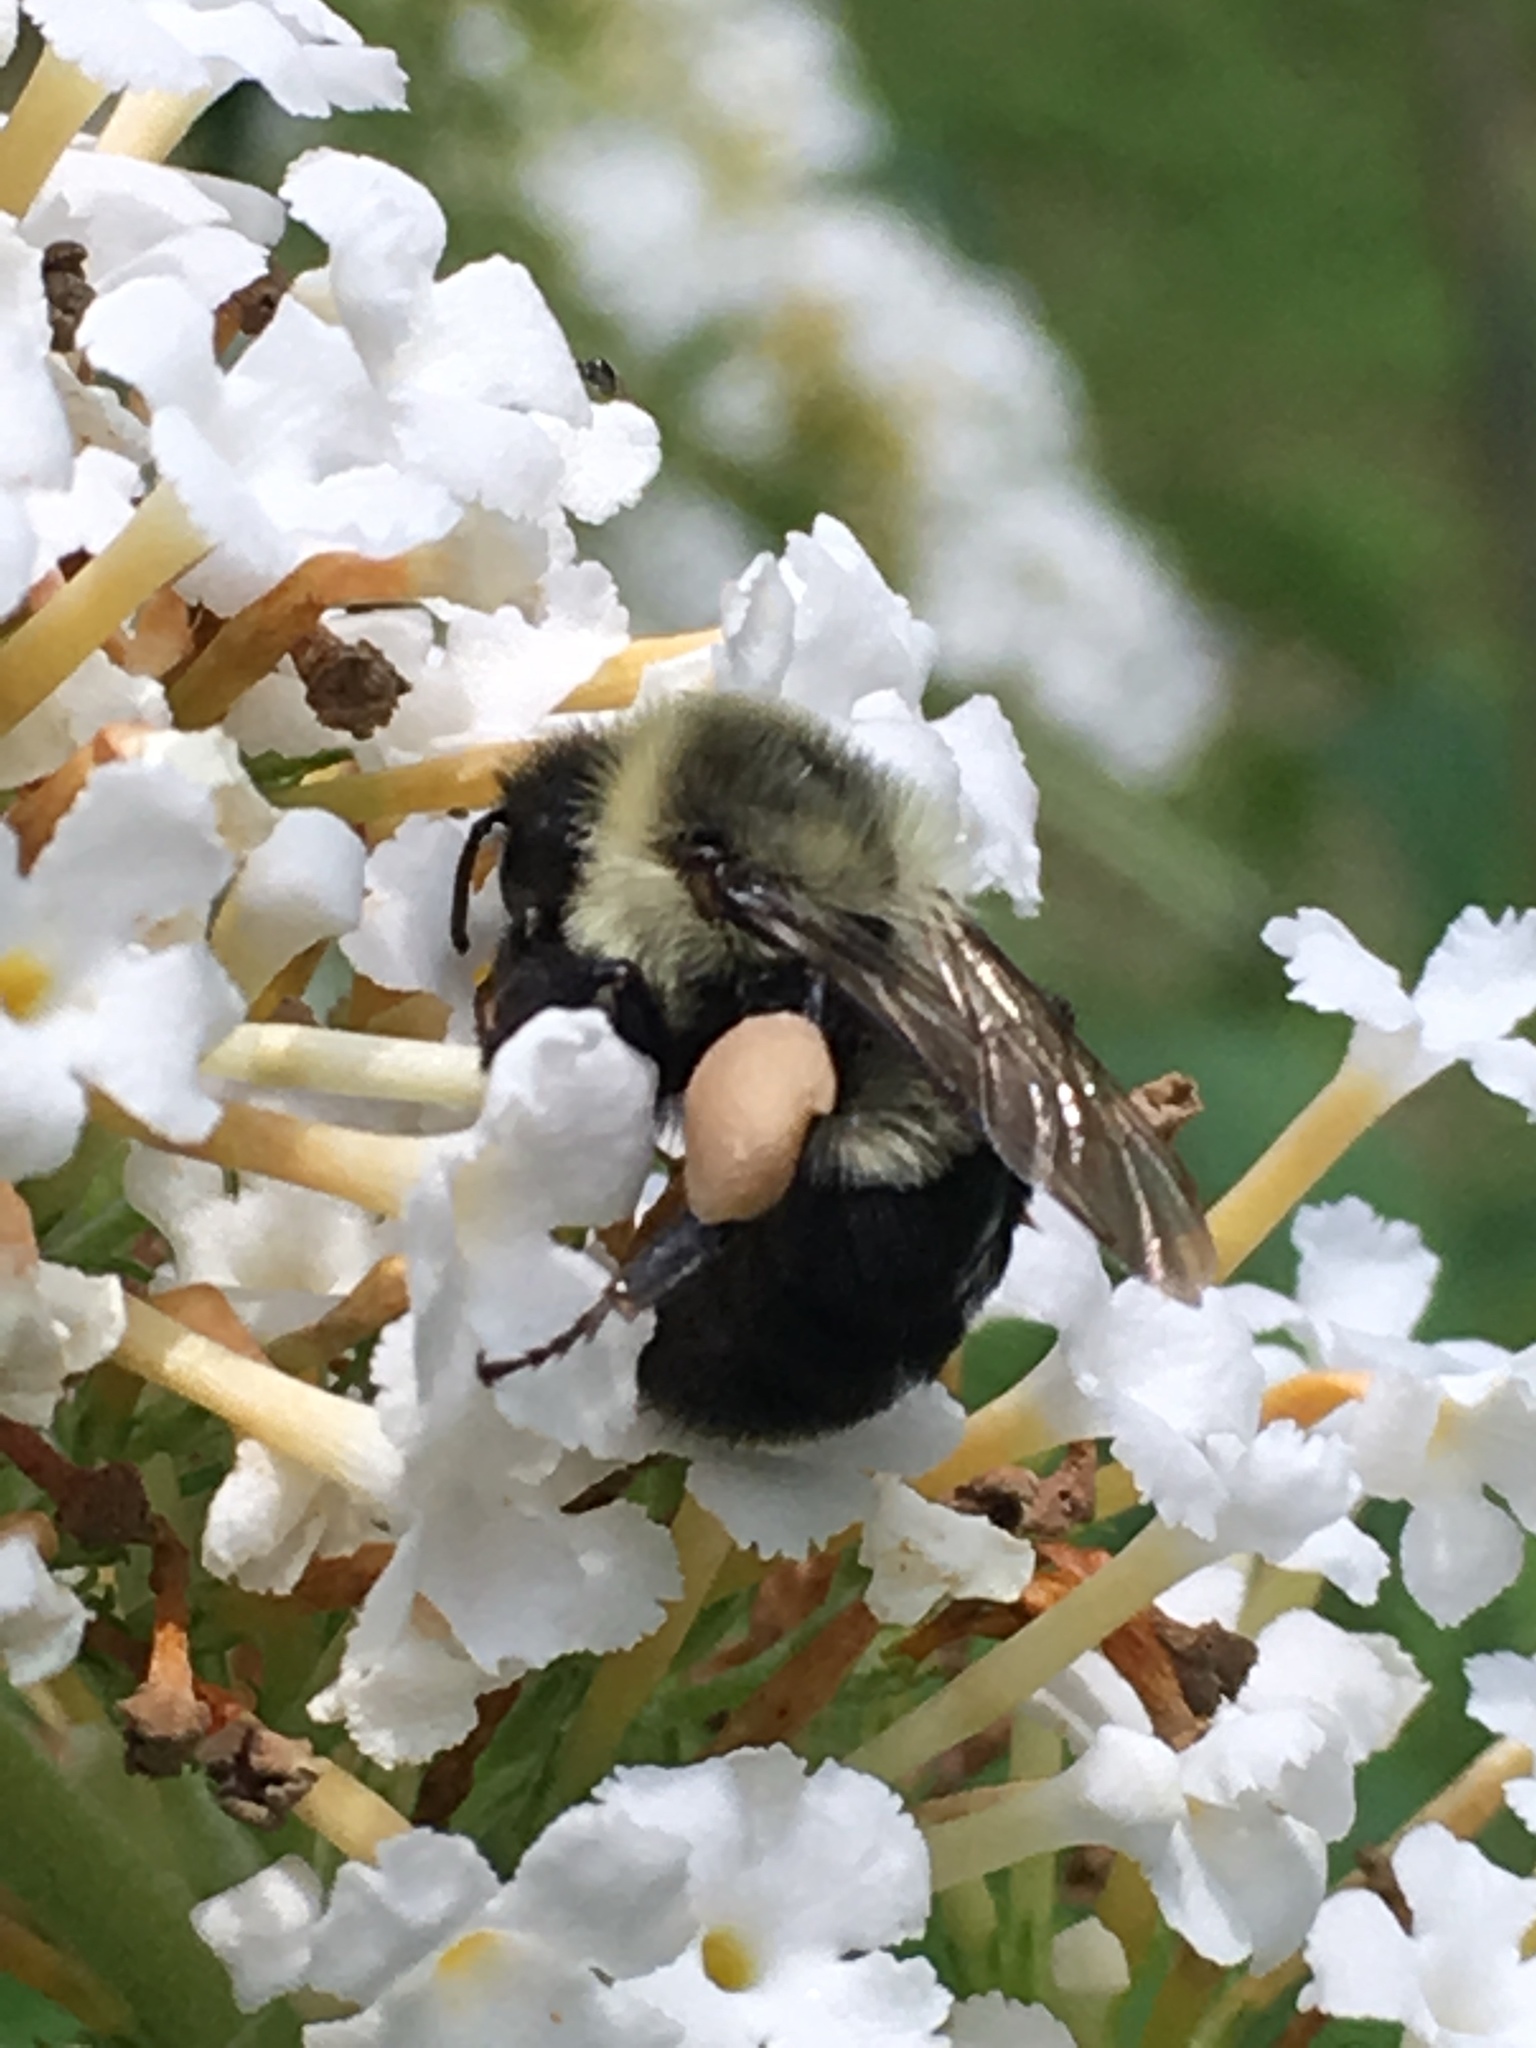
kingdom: Animalia
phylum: Arthropoda
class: Insecta
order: Hymenoptera
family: Apidae
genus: Bombus
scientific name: Bombus impatiens
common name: Common eastern bumble bee
